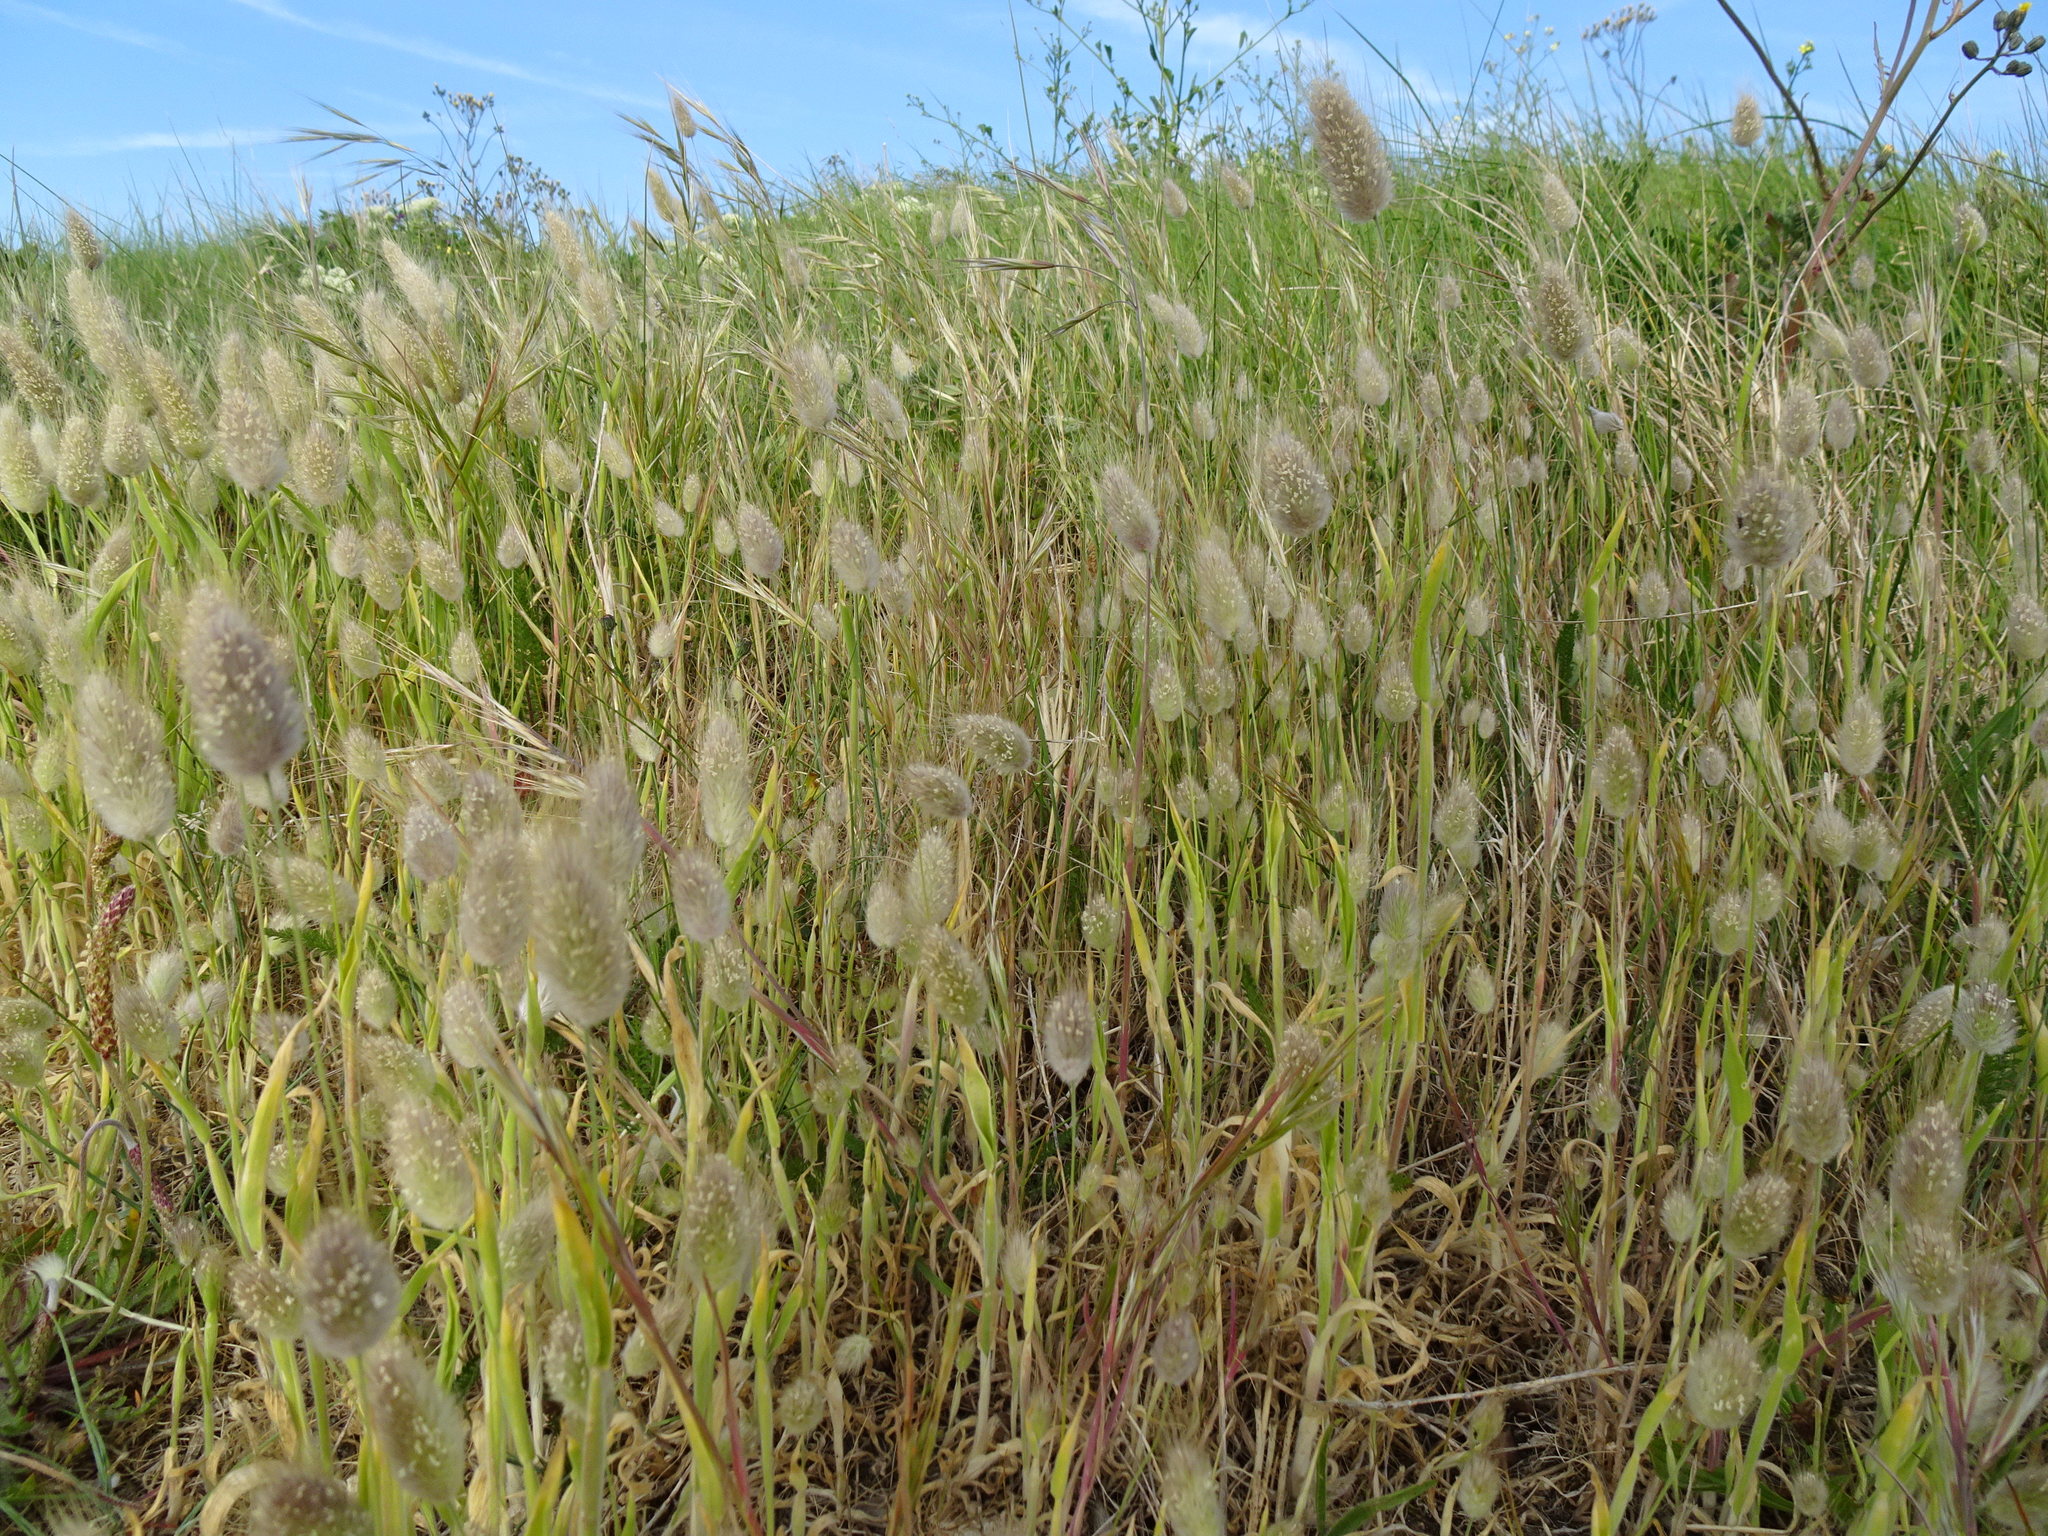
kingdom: Plantae
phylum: Tracheophyta
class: Liliopsida
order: Poales
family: Poaceae
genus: Lagurus
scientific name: Lagurus ovatus
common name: Hare's-tail
